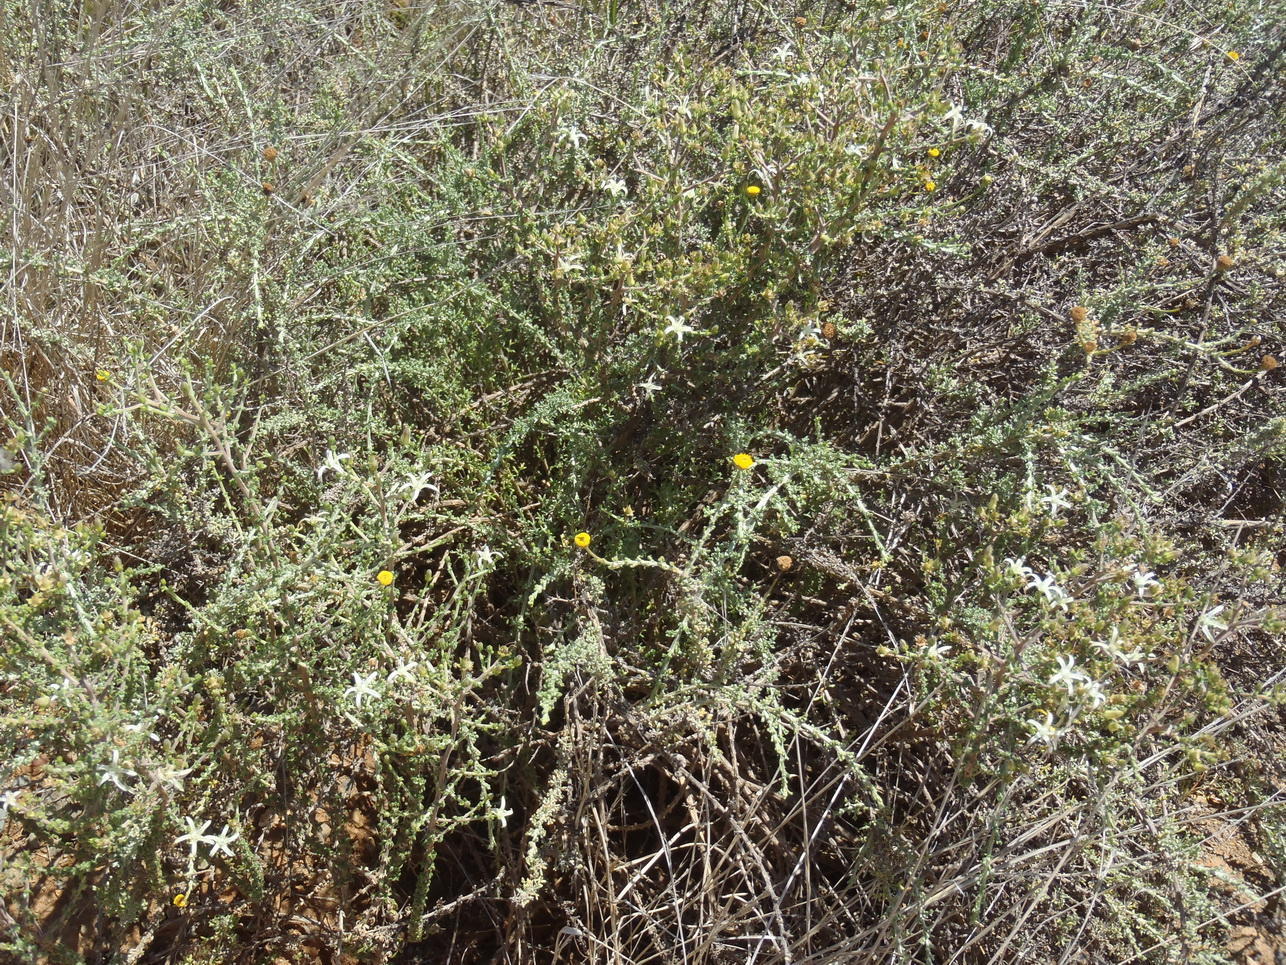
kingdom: Plantae
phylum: Tracheophyta
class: Magnoliopsida
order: Asterales
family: Campanulaceae
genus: Wahlenbergia
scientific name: Wahlenbergia nodosa
